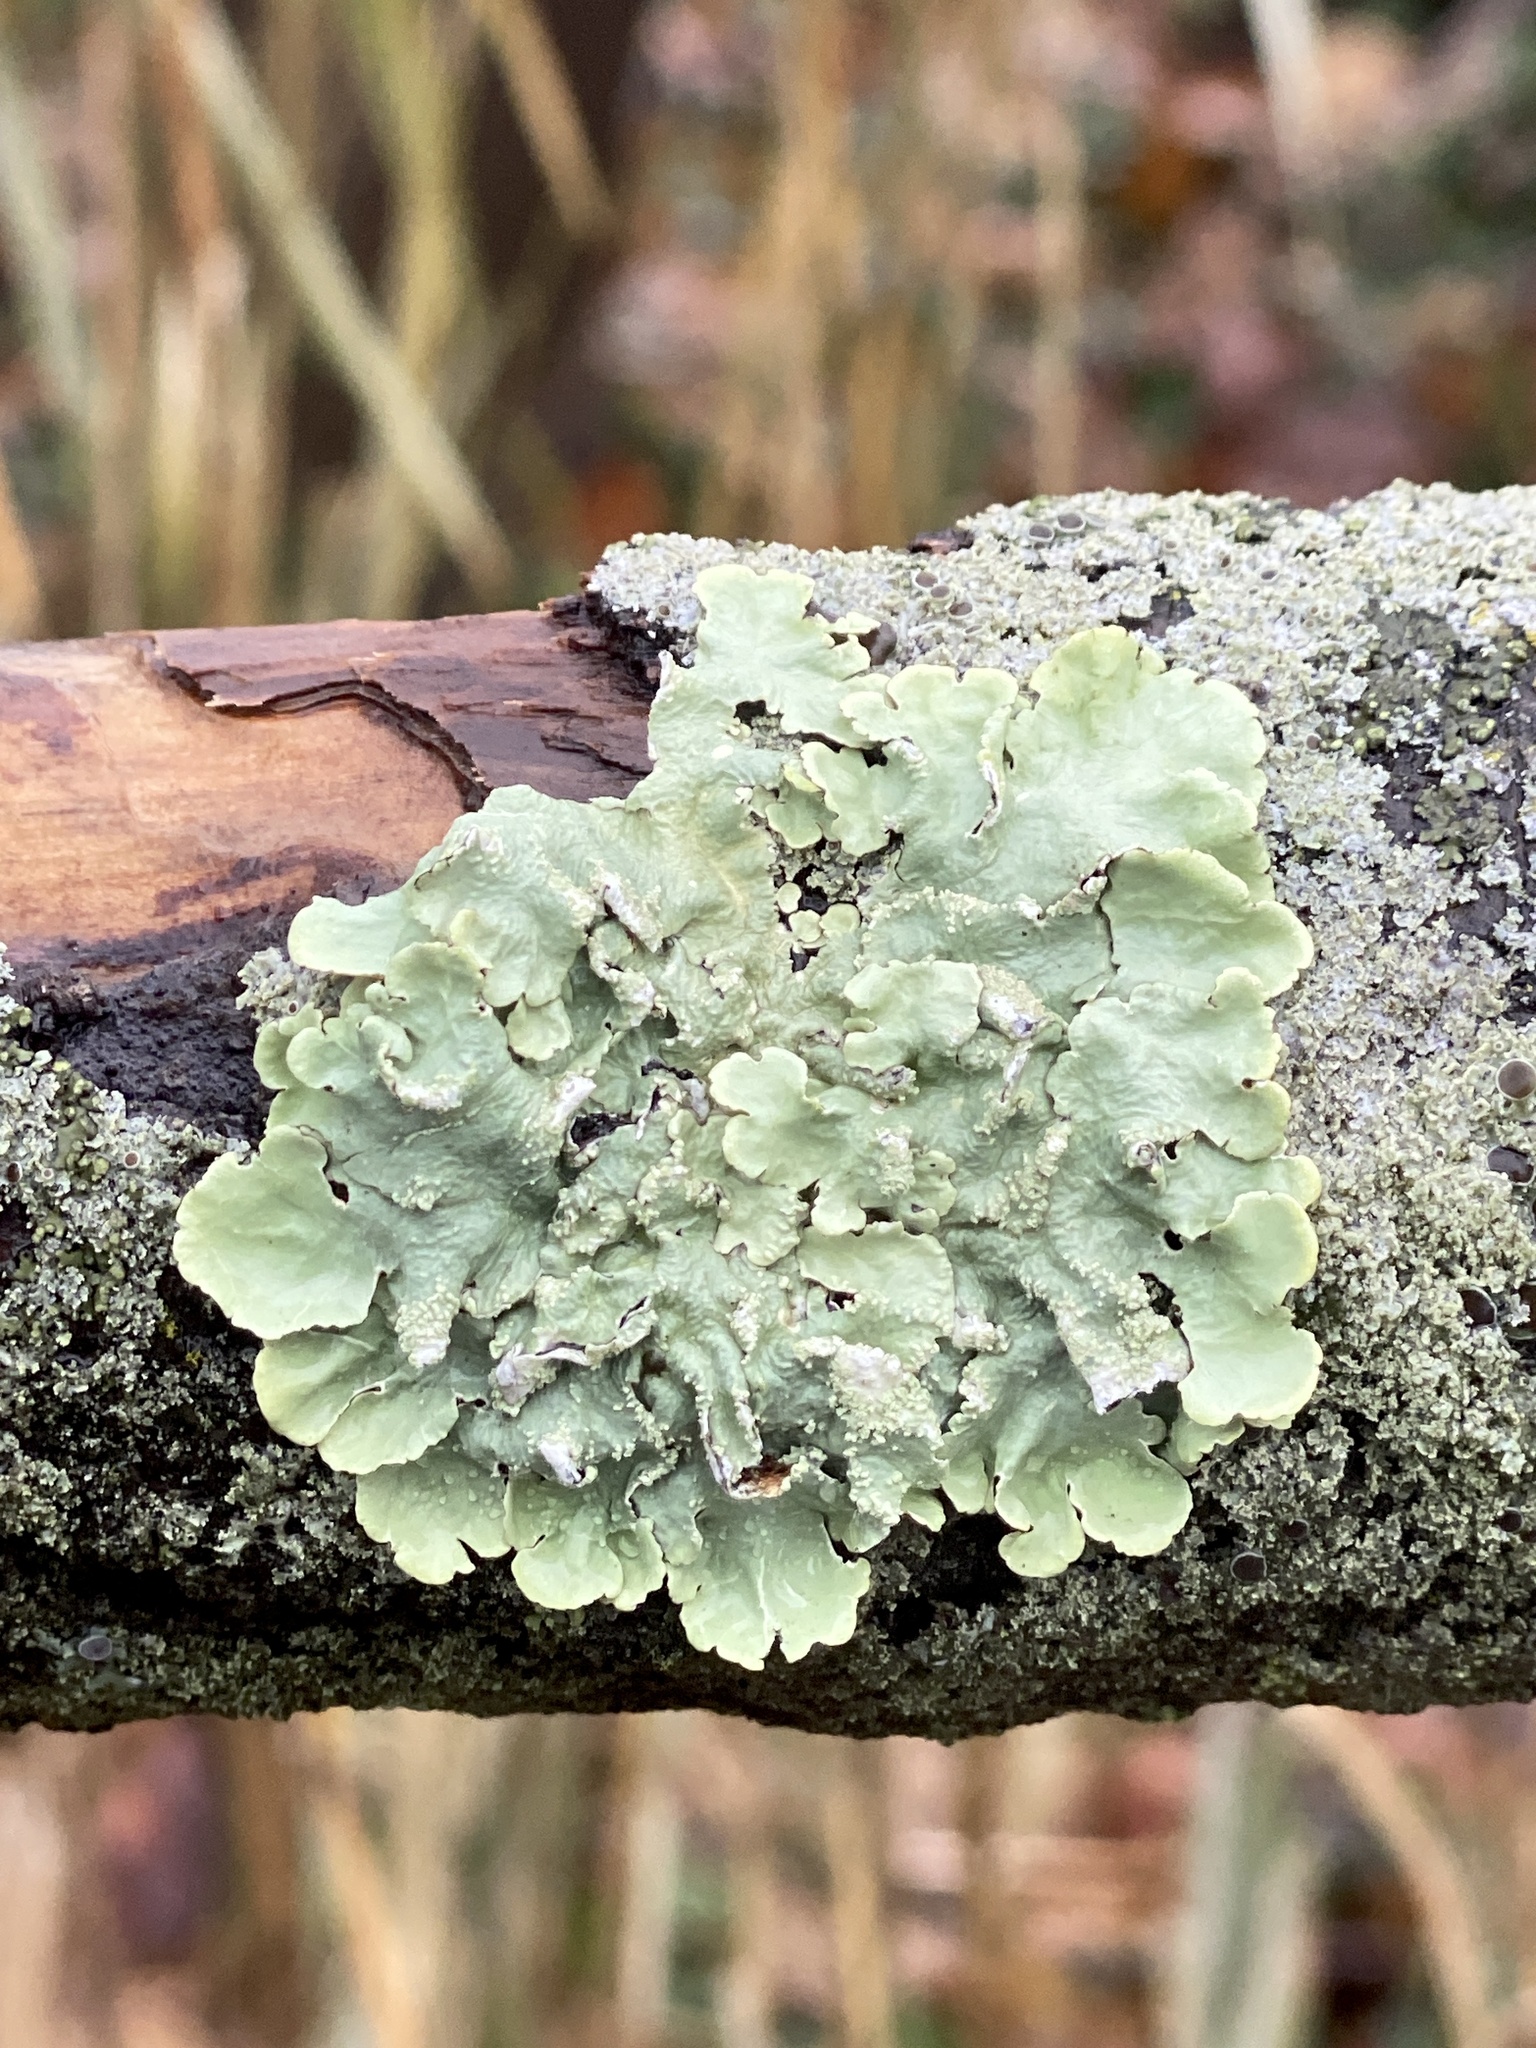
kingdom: Fungi
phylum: Ascomycota
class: Lecanoromycetes
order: Lecanorales
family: Parmeliaceae
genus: Flavoparmelia
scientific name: Flavoparmelia caperata
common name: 40-mile per hour lichen
